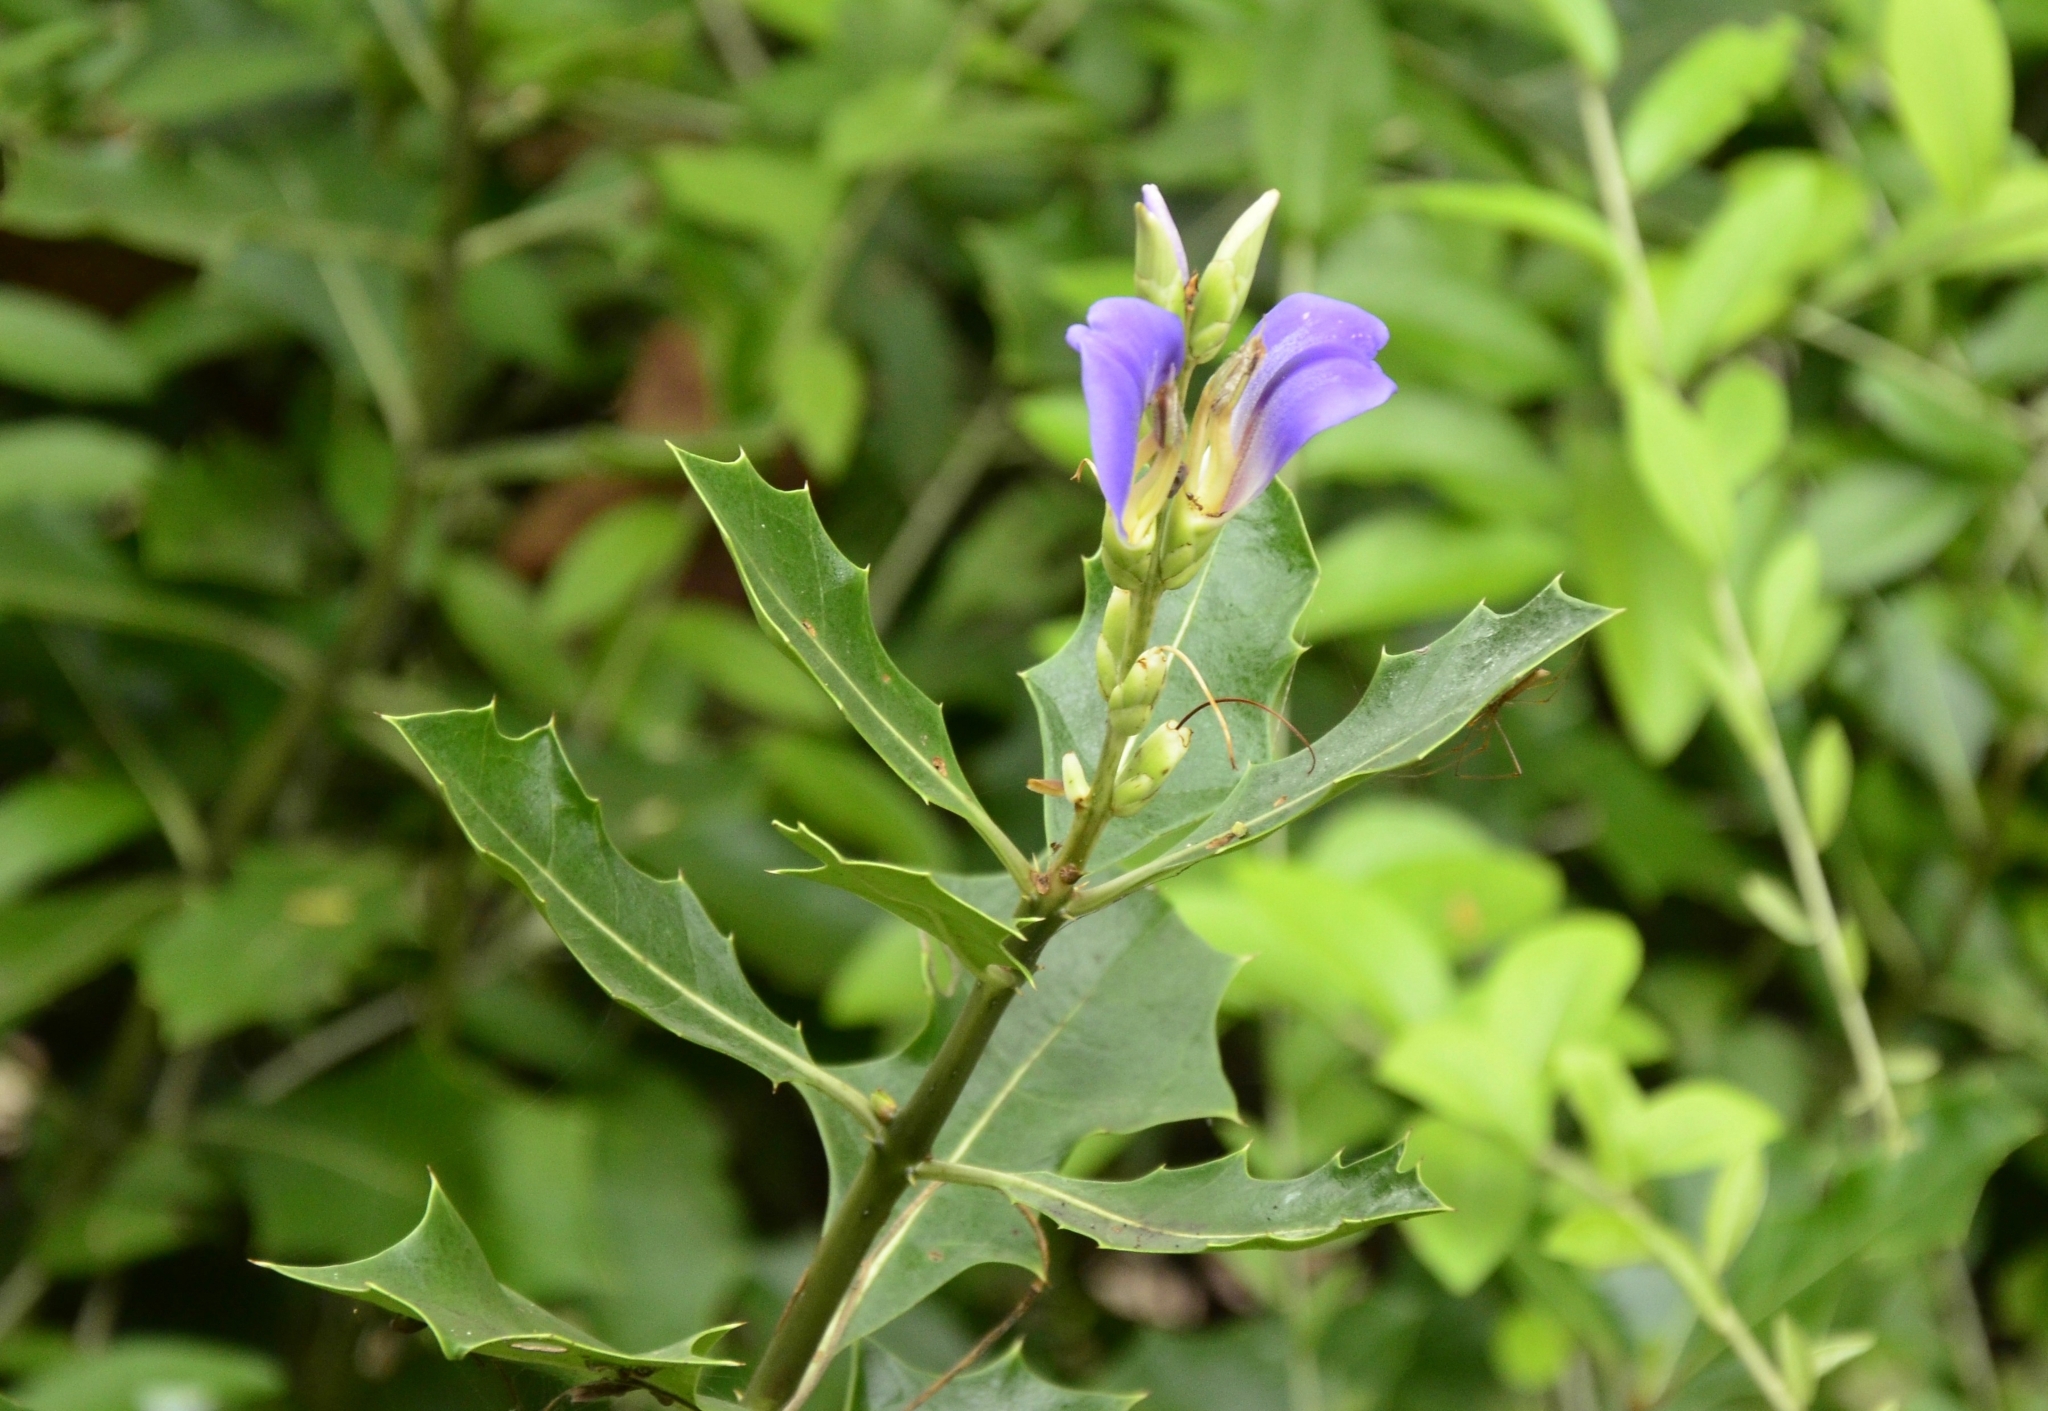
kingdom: Plantae
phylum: Tracheophyta
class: Magnoliopsida
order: Lamiales
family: Acanthaceae
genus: Acanthus
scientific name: Acanthus ilicifolius
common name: Holy mangrove
